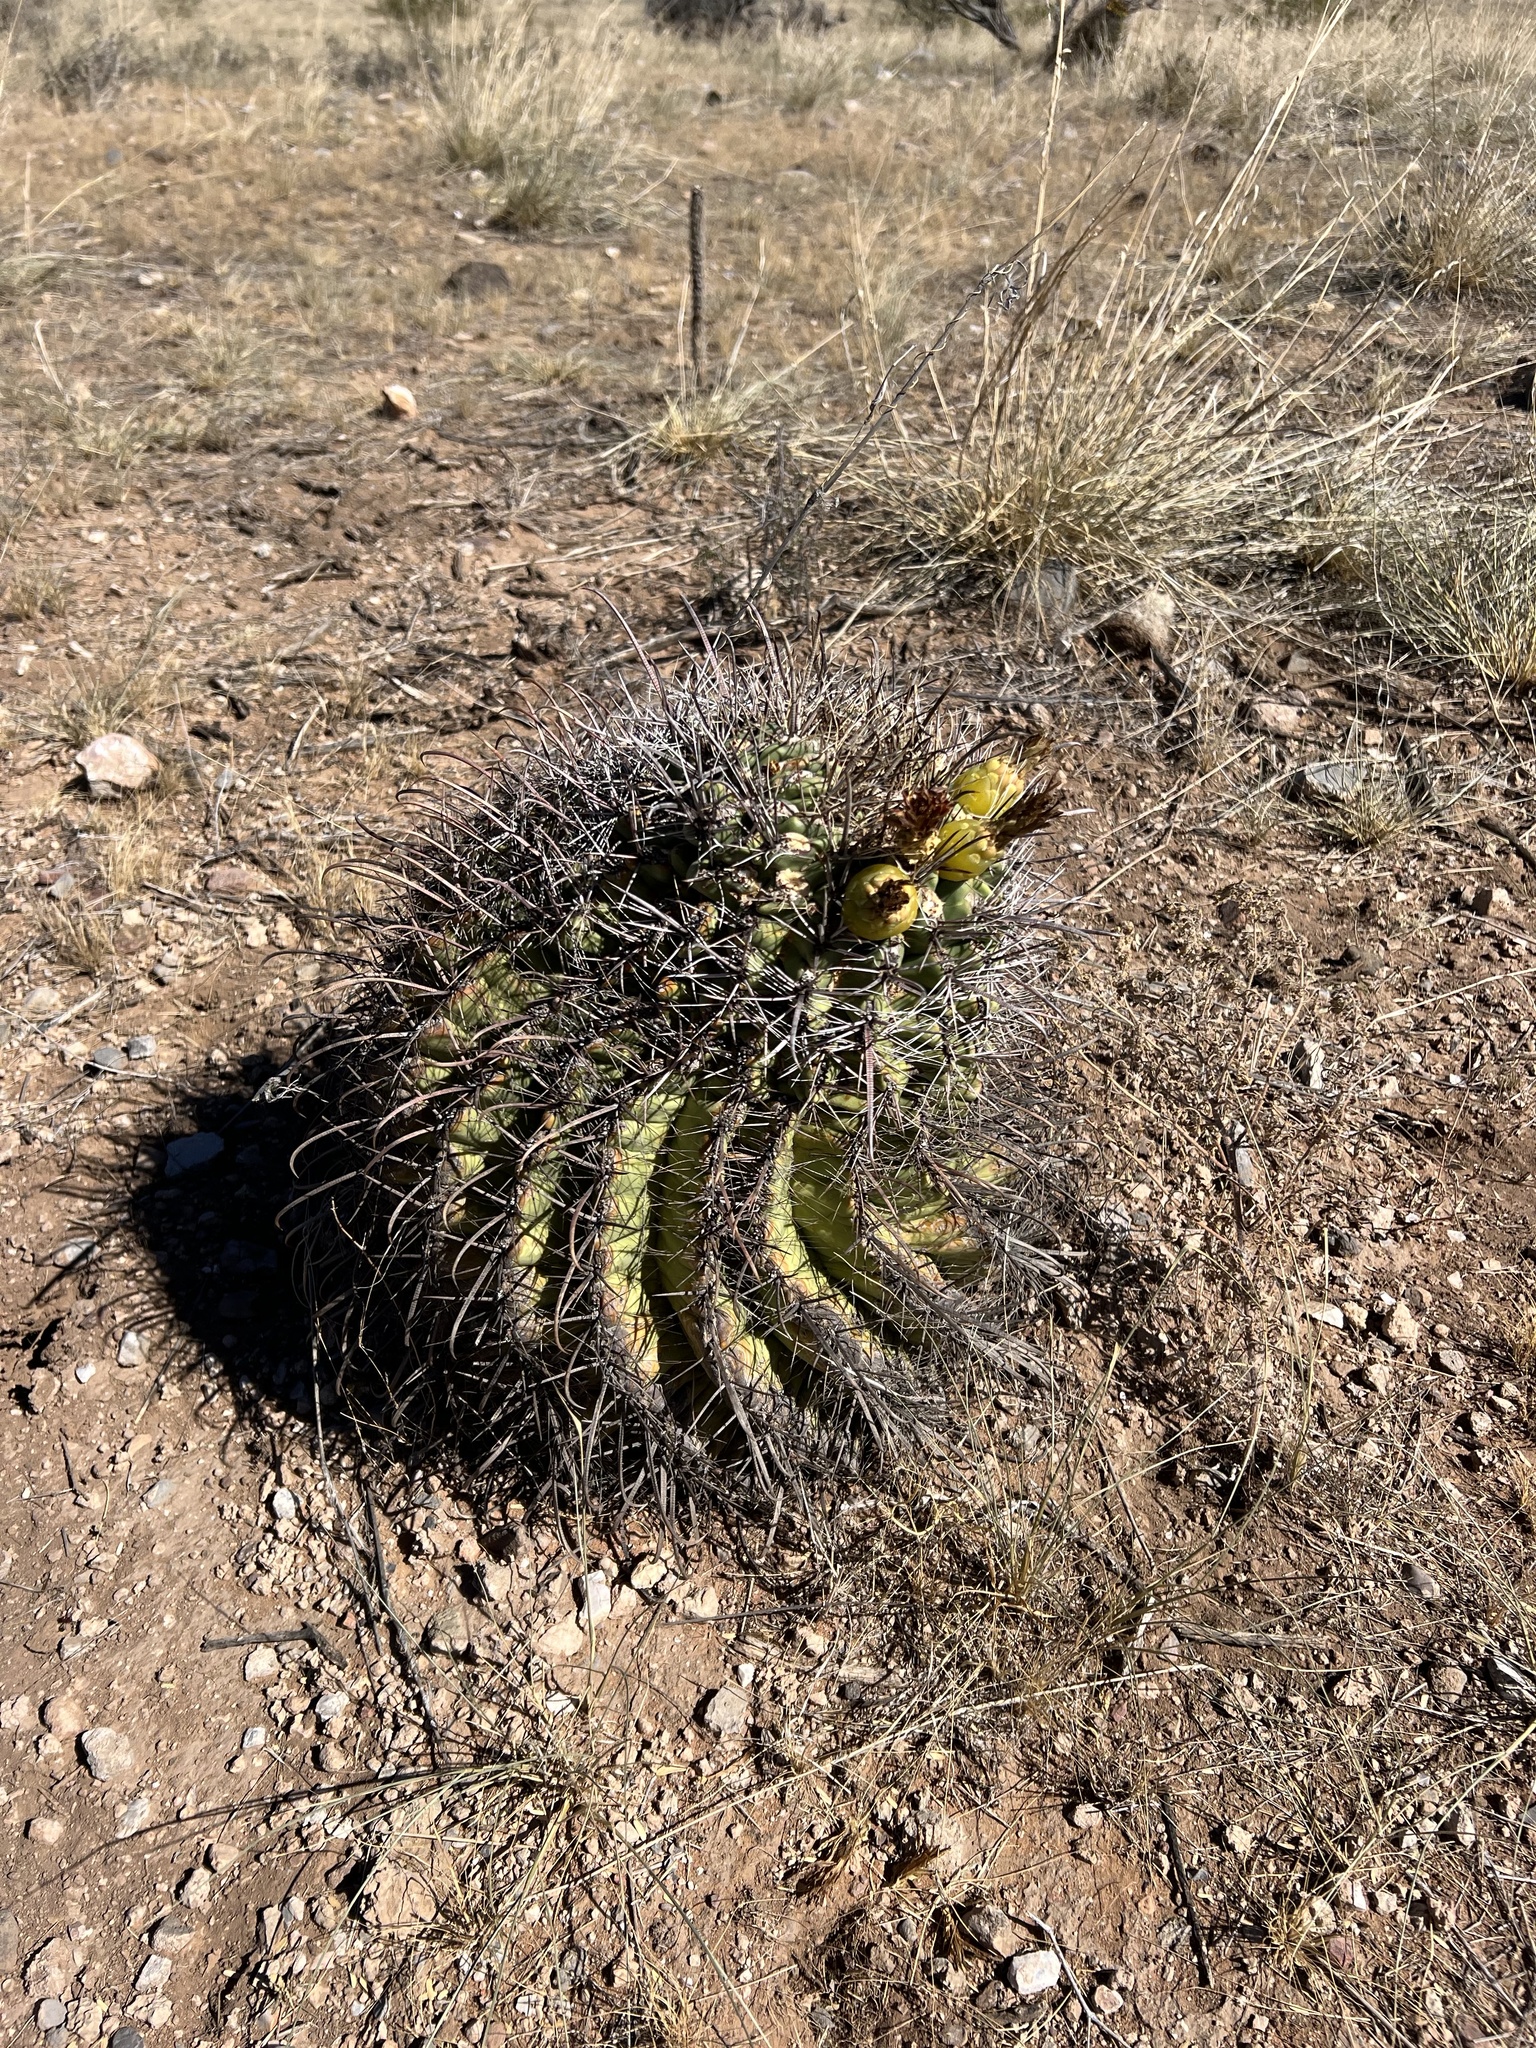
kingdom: Plantae
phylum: Tracheophyta
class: Magnoliopsida
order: Caryophyllales
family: Cactaceae
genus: Ferocactus
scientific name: Ferocactus wislizeni
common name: Candy barrel cactus
